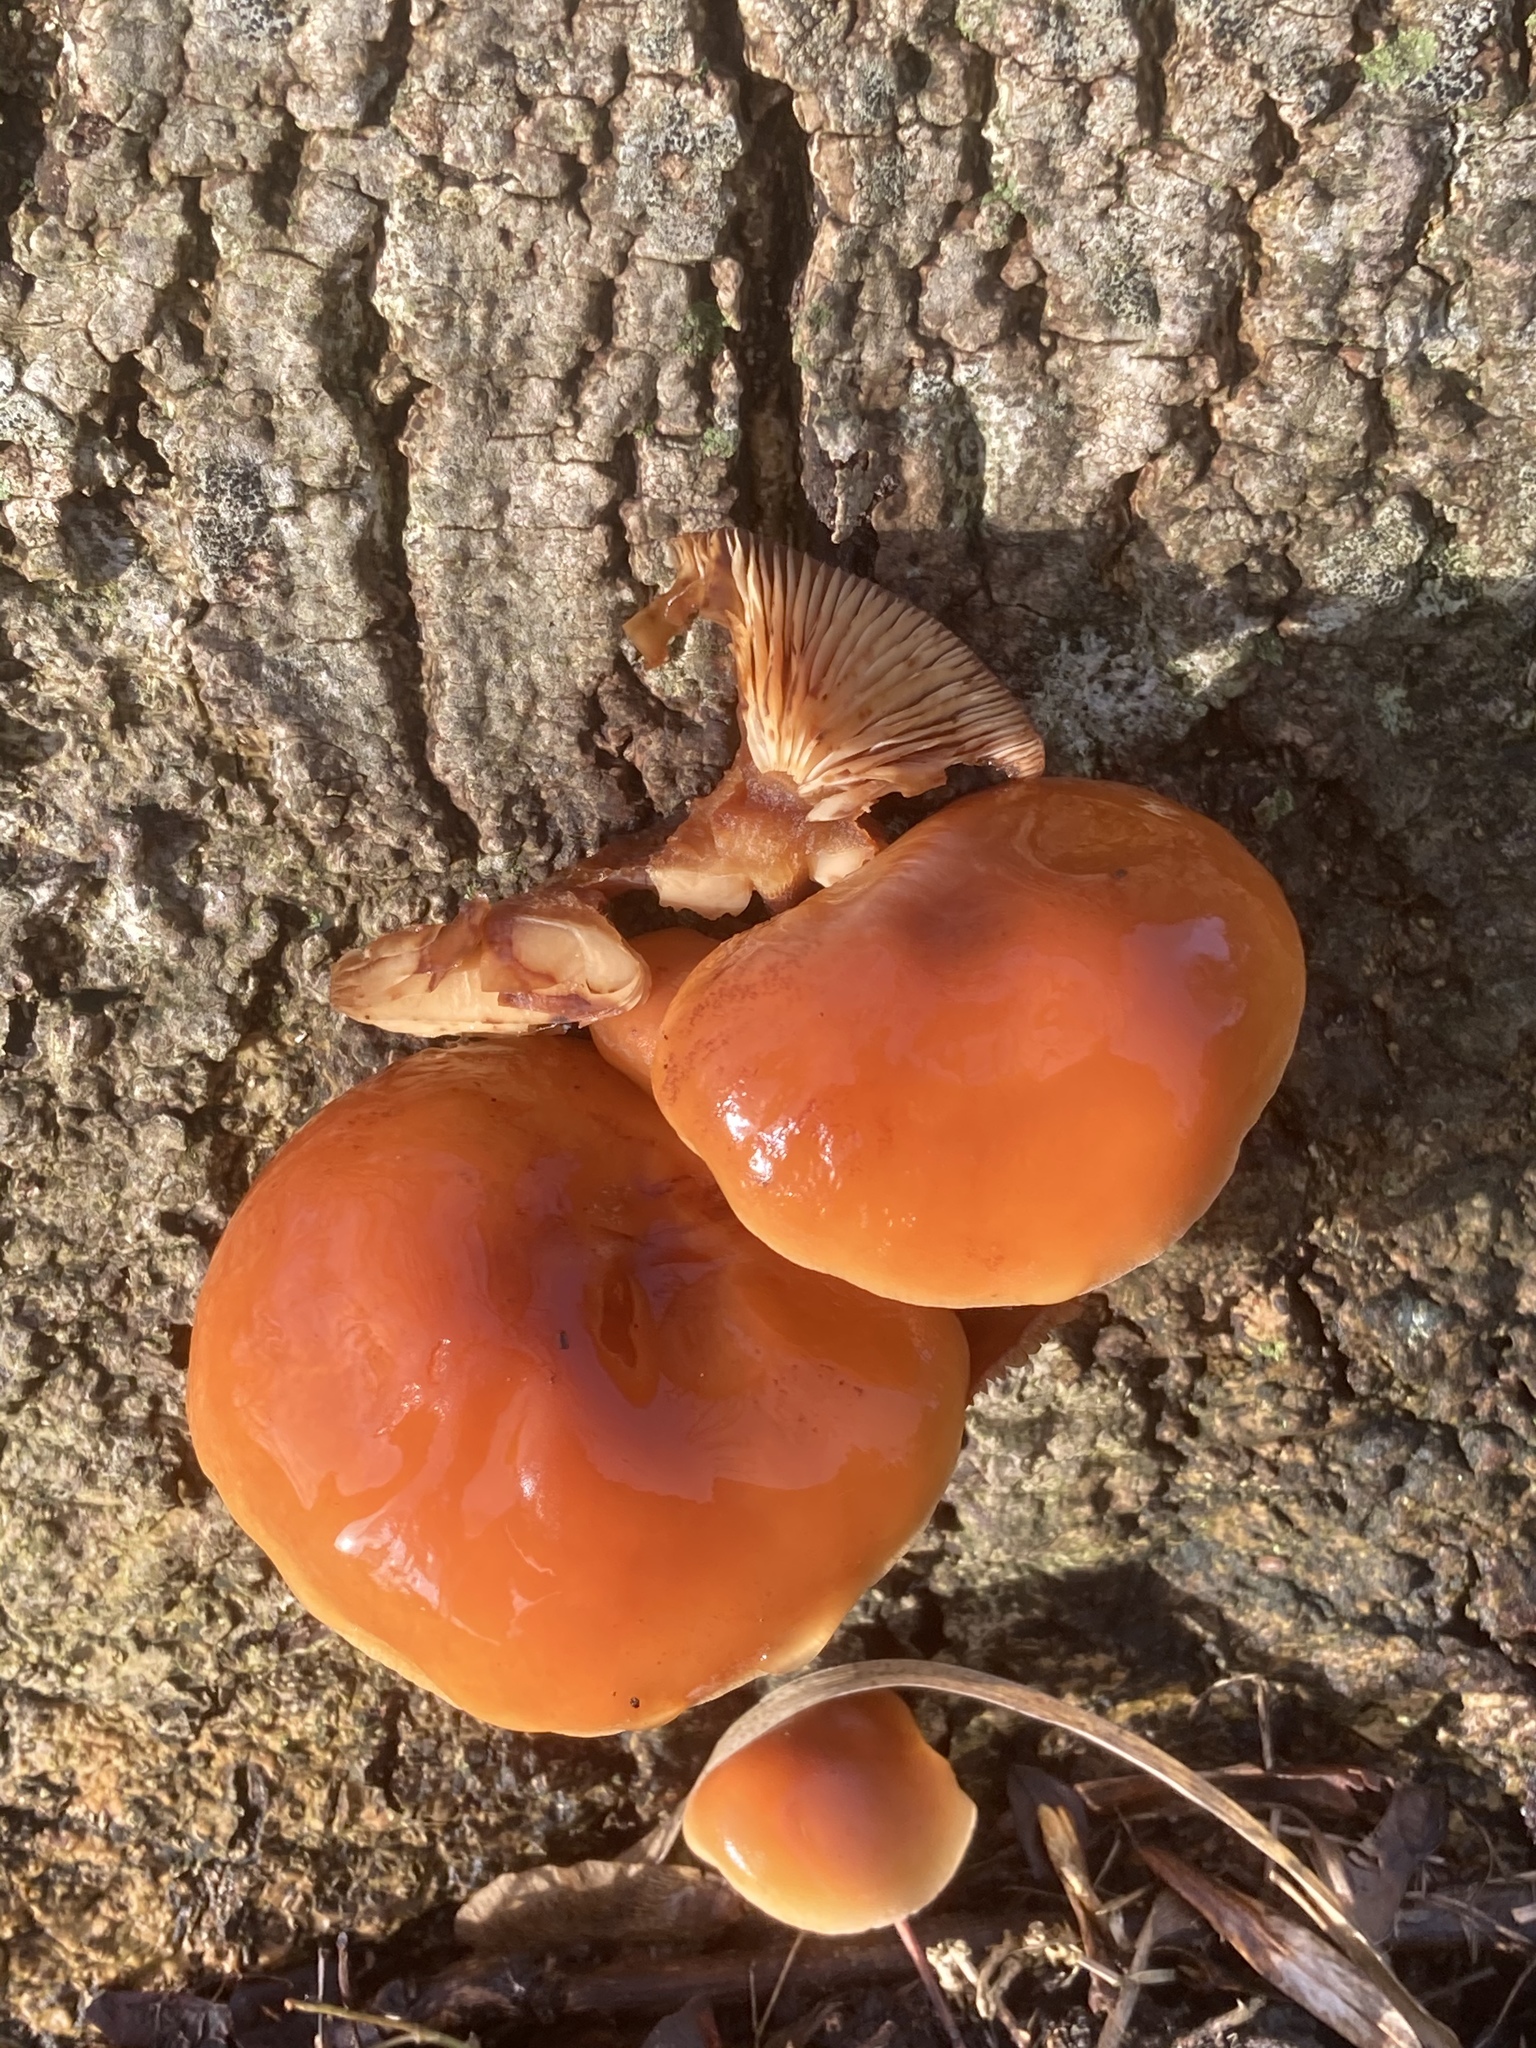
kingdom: Fungi
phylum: Basidiomycota
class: Agaricomycetes
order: Agaricales
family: Physalacriaceae
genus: Flammulina
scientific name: Flammulina
